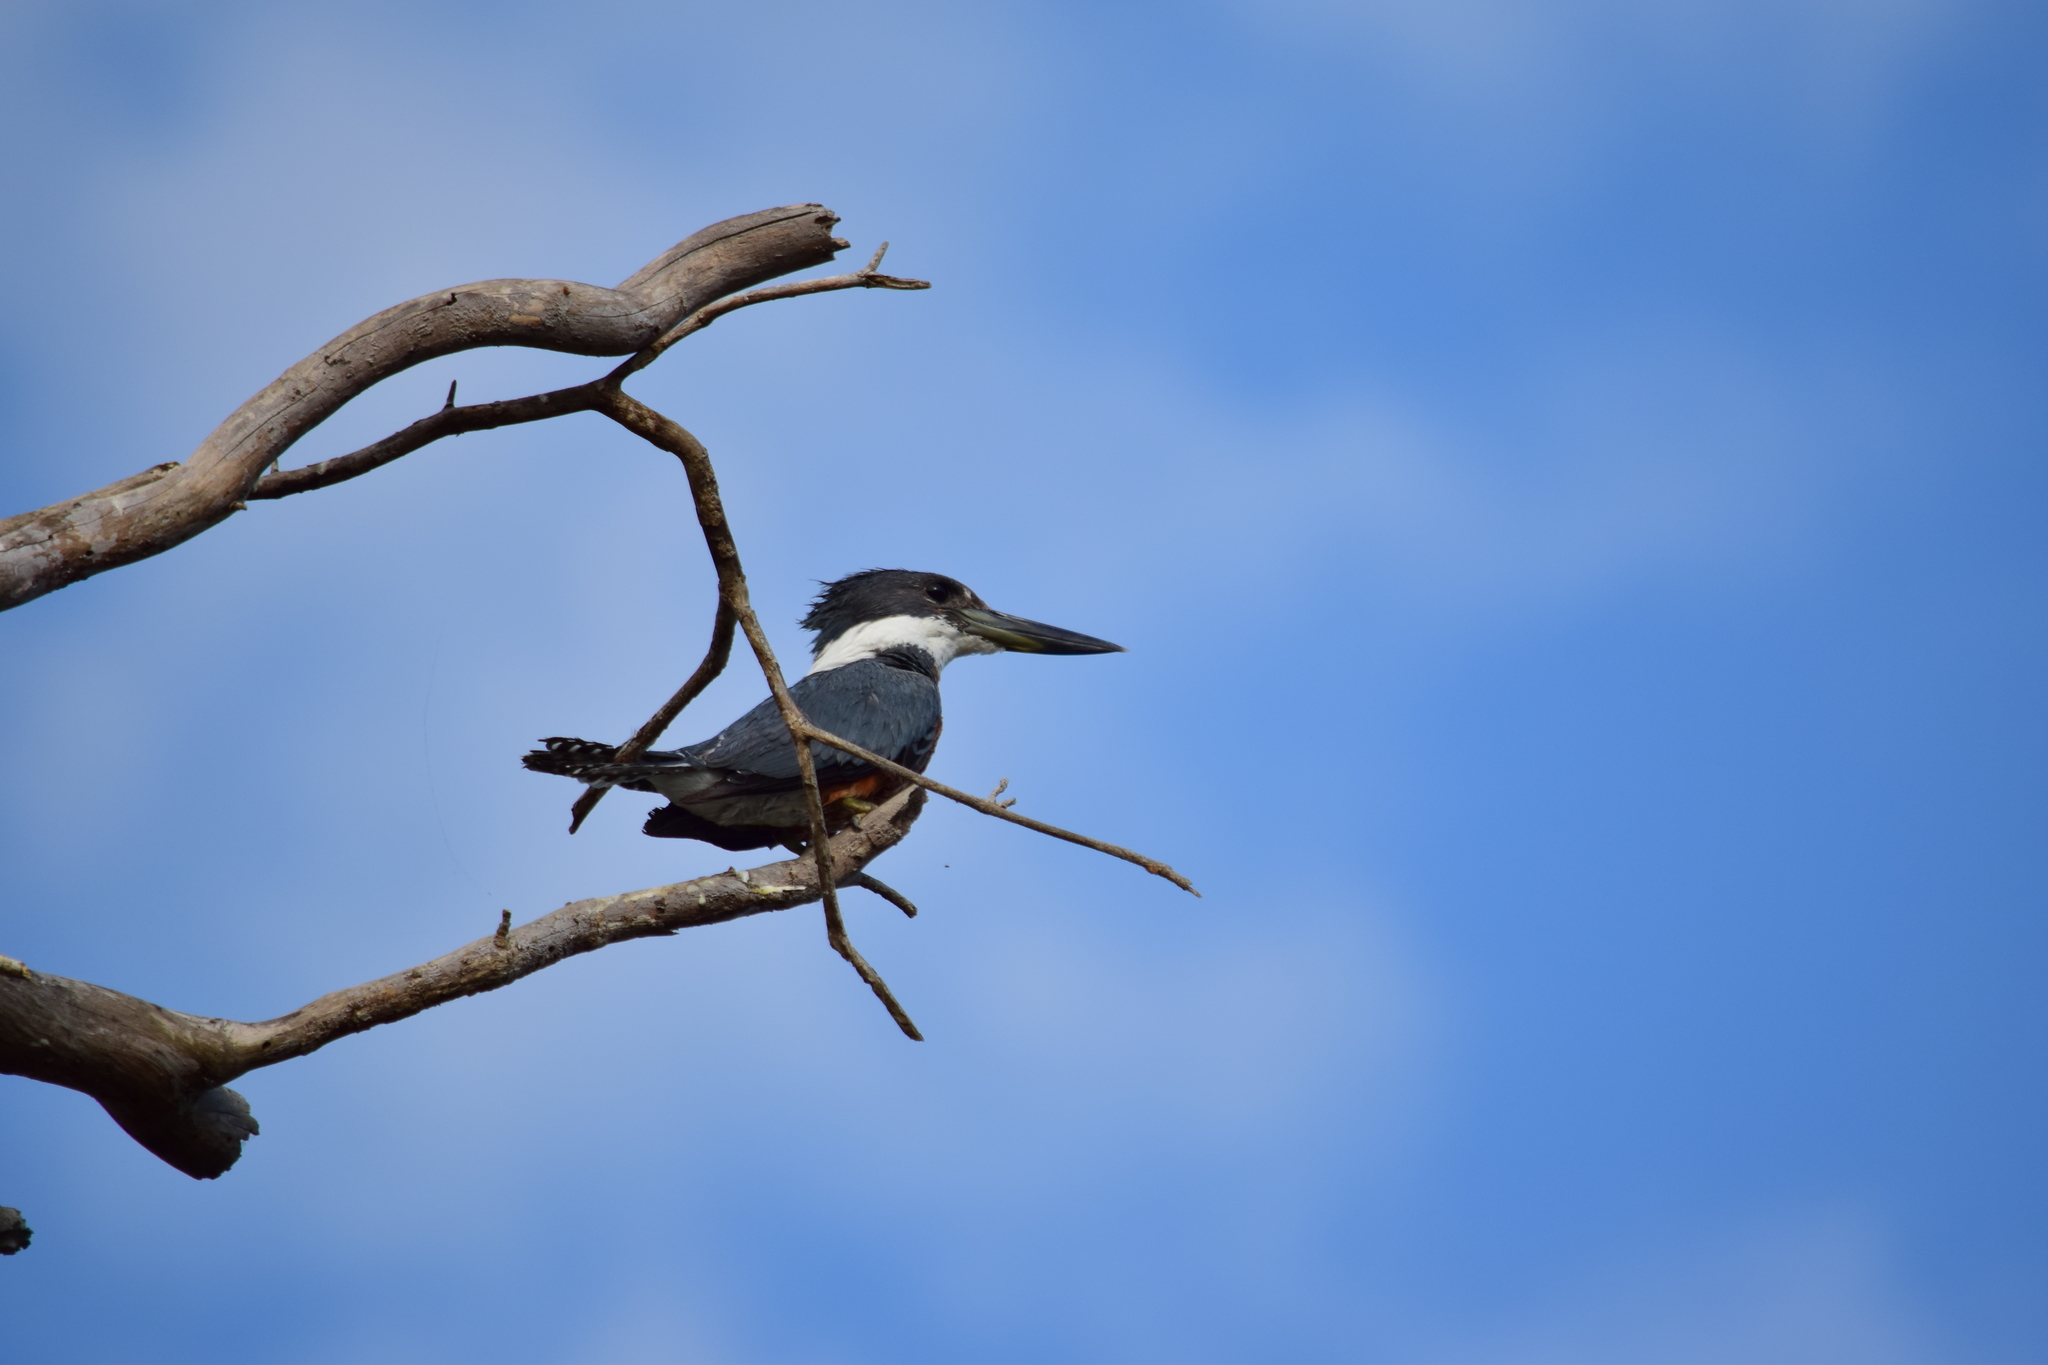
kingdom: Animalia
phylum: Chordata
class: Aves
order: Coraciiformes
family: Alcedinidae
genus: Megaceryle
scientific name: Megaceryle torquata
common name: Ringed kingfisher
